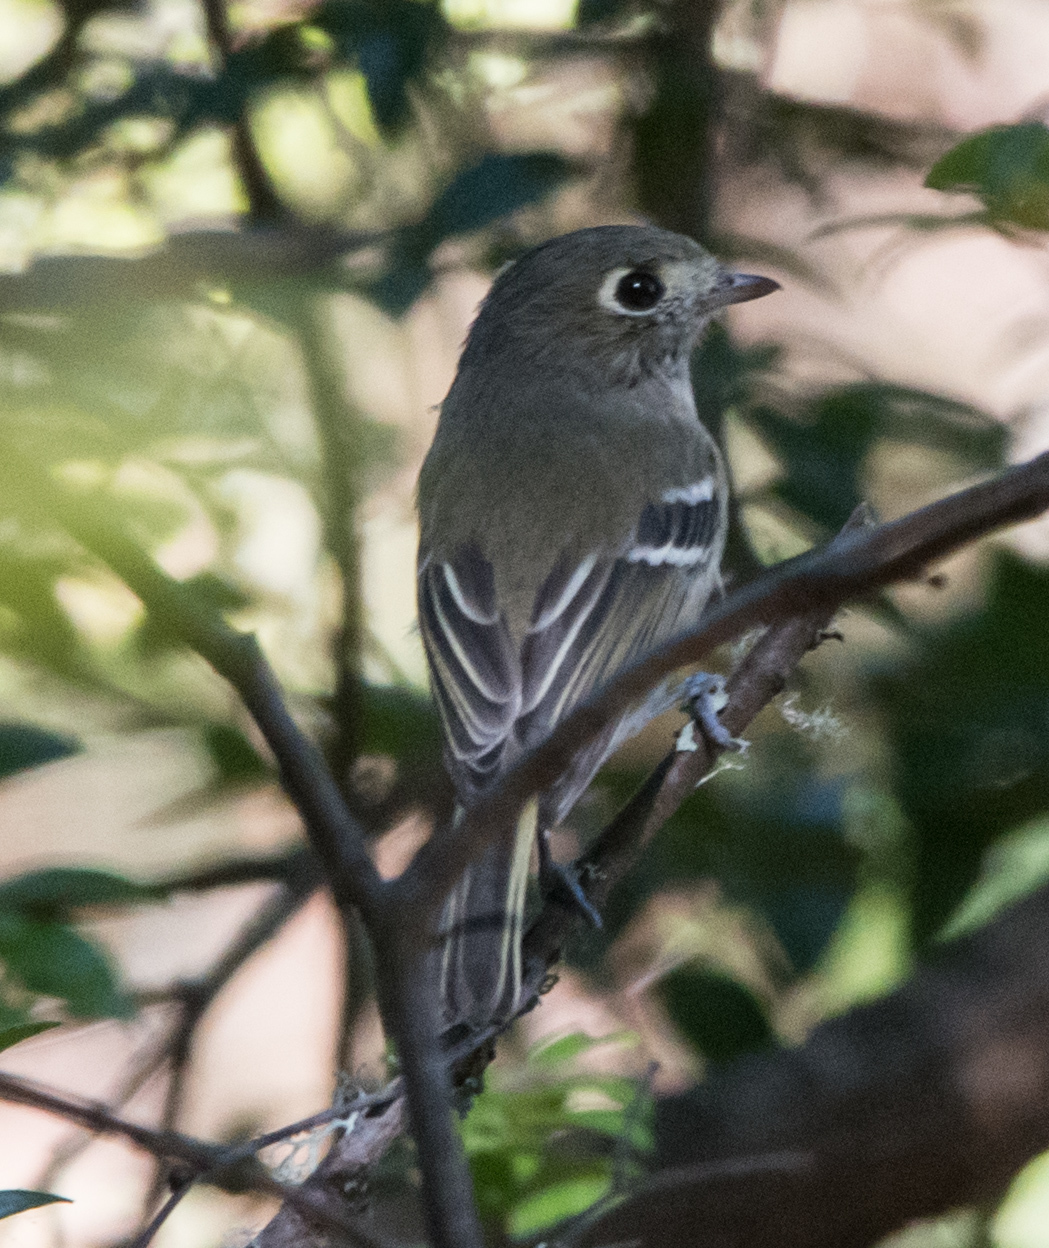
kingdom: Animalia
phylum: Chordata
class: Aves
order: Passeriformes
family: Vireonidae
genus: Vireo
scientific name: Vireo huttoni
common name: Hutton's vireo
